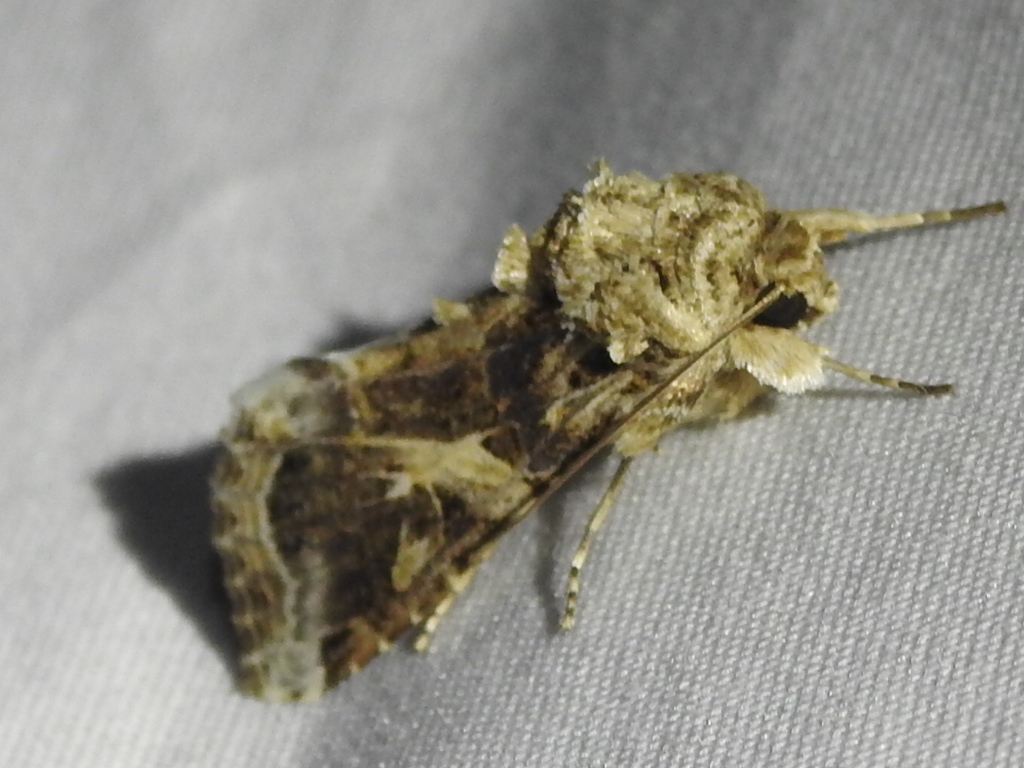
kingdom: Animalia
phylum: Arthropoda
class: Insecta
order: Lepidoptera
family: Noctuidae
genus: Spodoptera
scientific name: Spodoptera ornithogalli
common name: Yellow-striped armyworm
